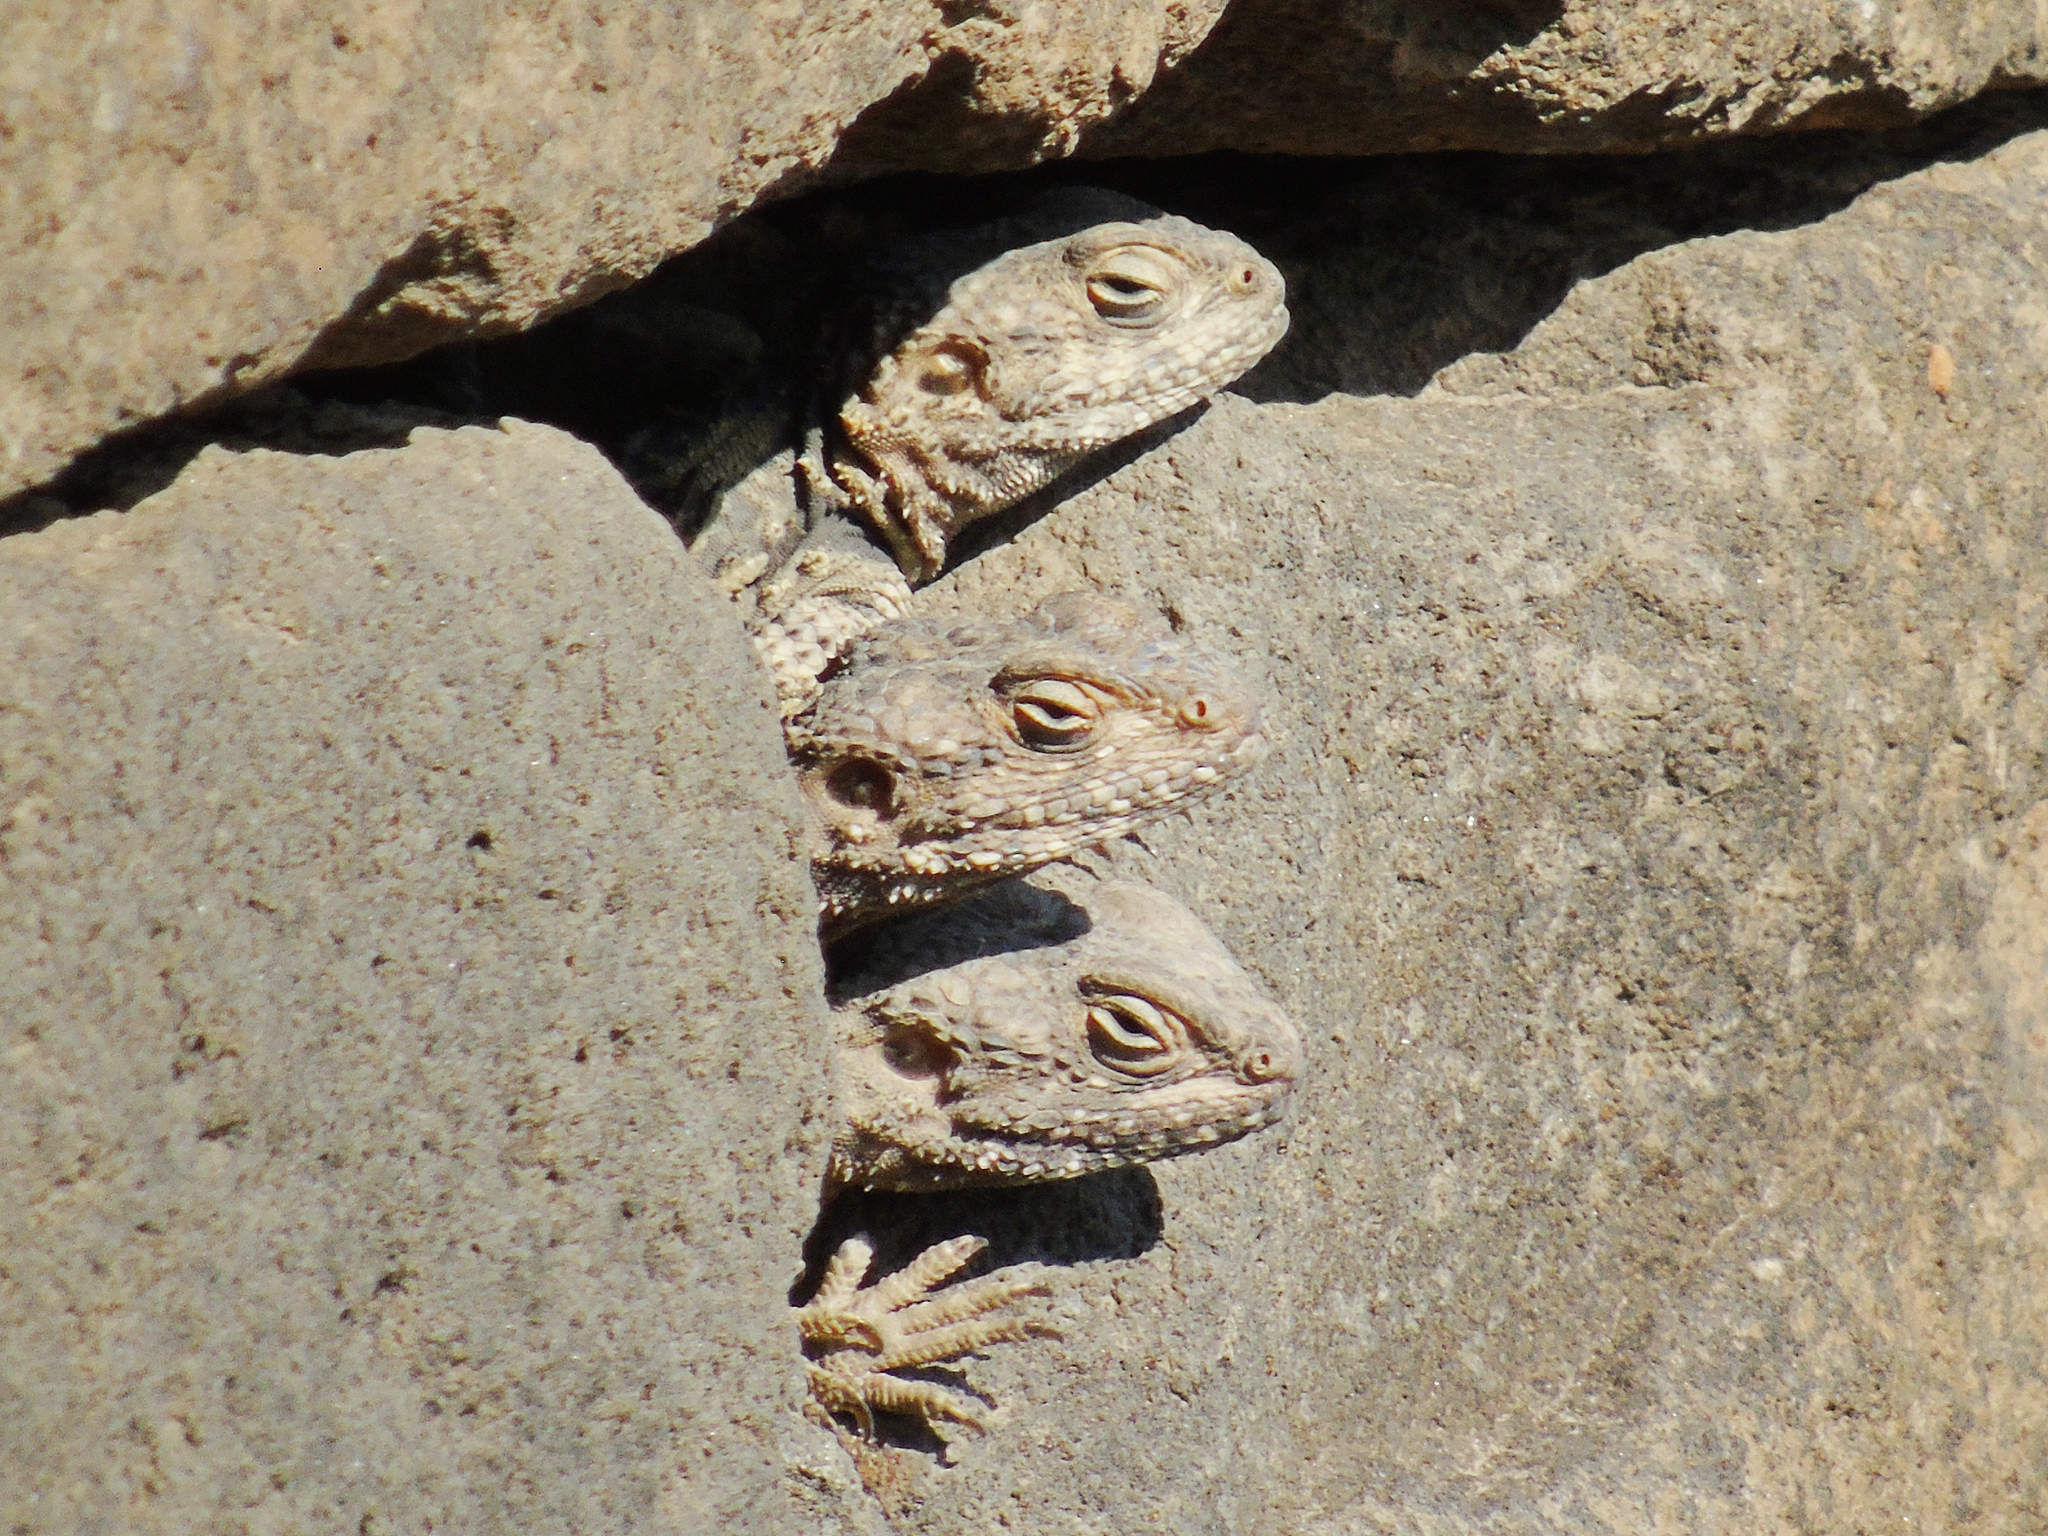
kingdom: Animalia
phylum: Chordata
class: Squamata
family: Agamidae
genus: Stellagama
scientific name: Stellagama stellio
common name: Starred agama
